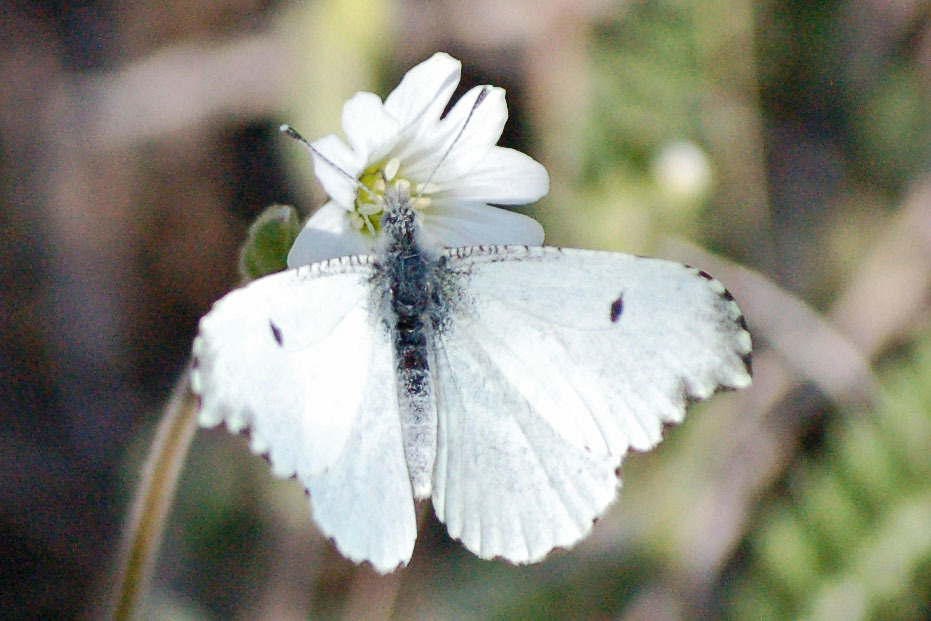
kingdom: Animalia
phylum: Arthropoda
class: Insecta
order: Lepidoptera
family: Pieridae
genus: Anthocharis
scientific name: Anthocharis midea
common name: Falcate orangetip
